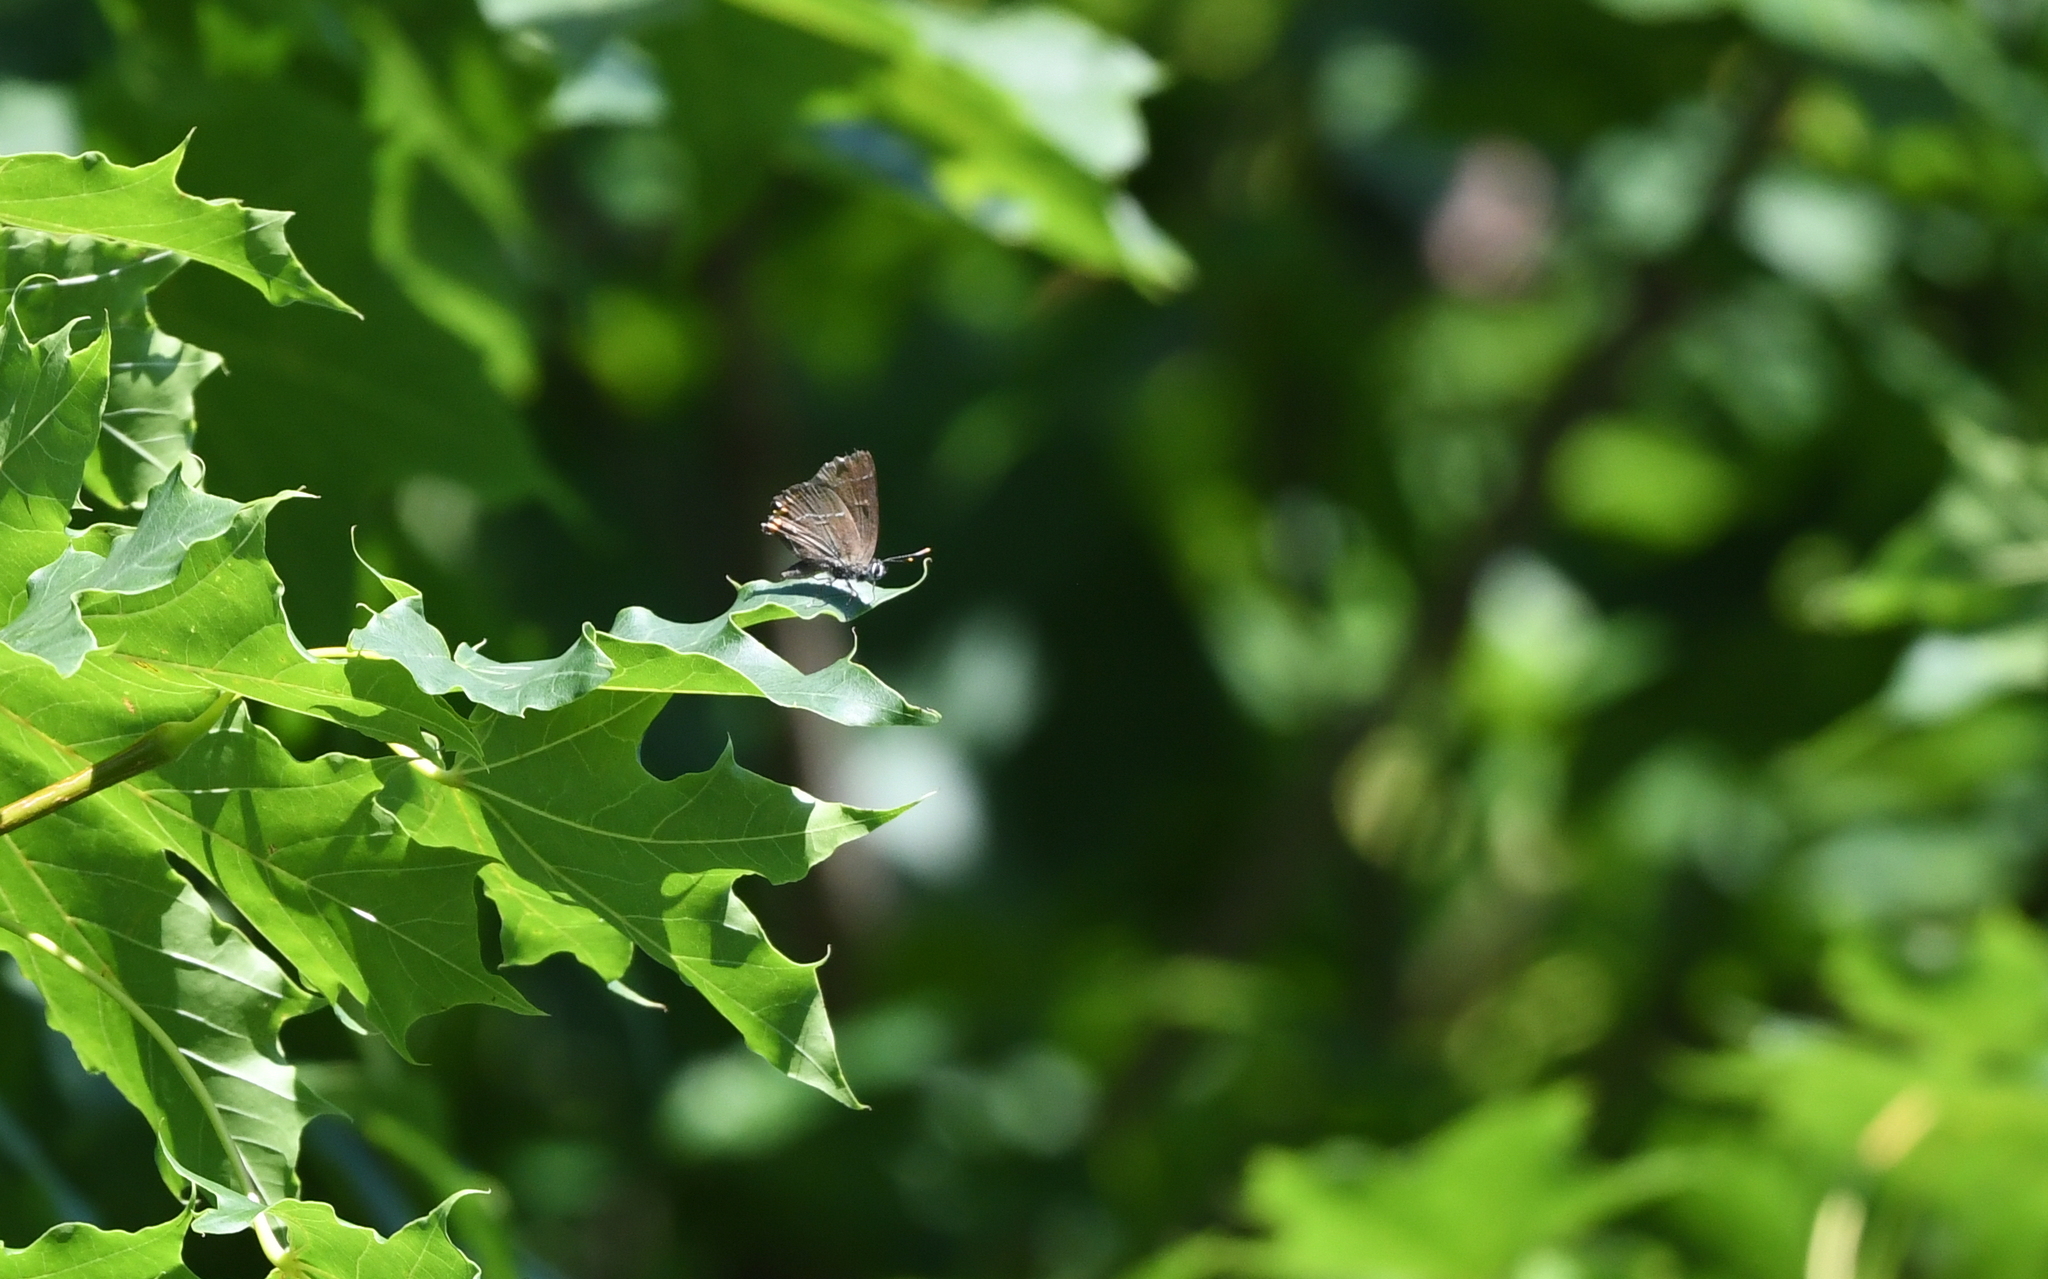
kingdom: Animalia
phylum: Arthropoda
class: Insecta
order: Lepidoptera
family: Lycaenidae
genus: Satyrium
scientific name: Satyrium w-album
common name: White-letter hairstreak
